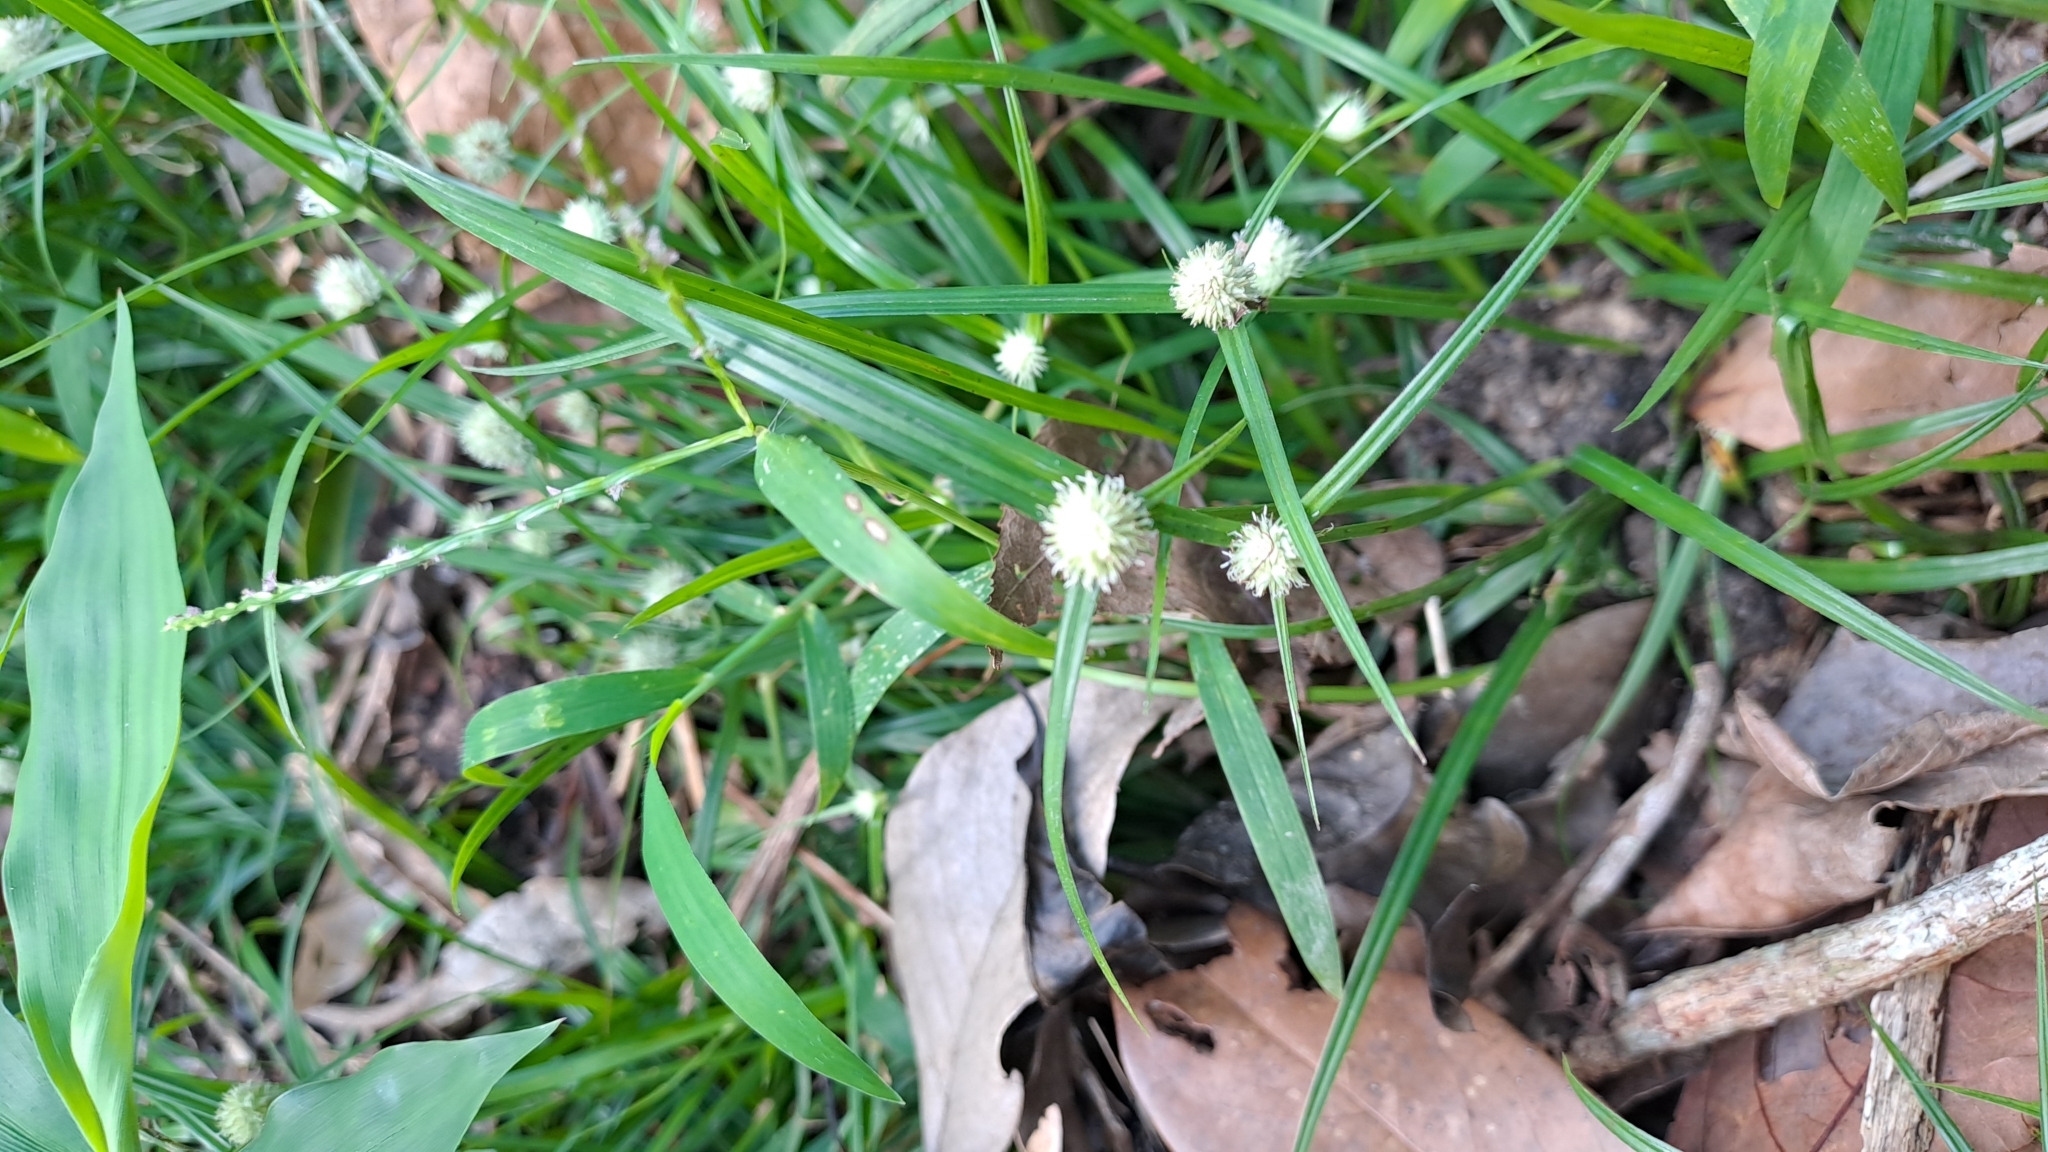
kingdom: Plantae
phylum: Tracheophyta
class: Liliopsida
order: Poales
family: Cyperaceae
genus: Cyperus
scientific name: Cyperus mindorensis
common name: Flatsedge
